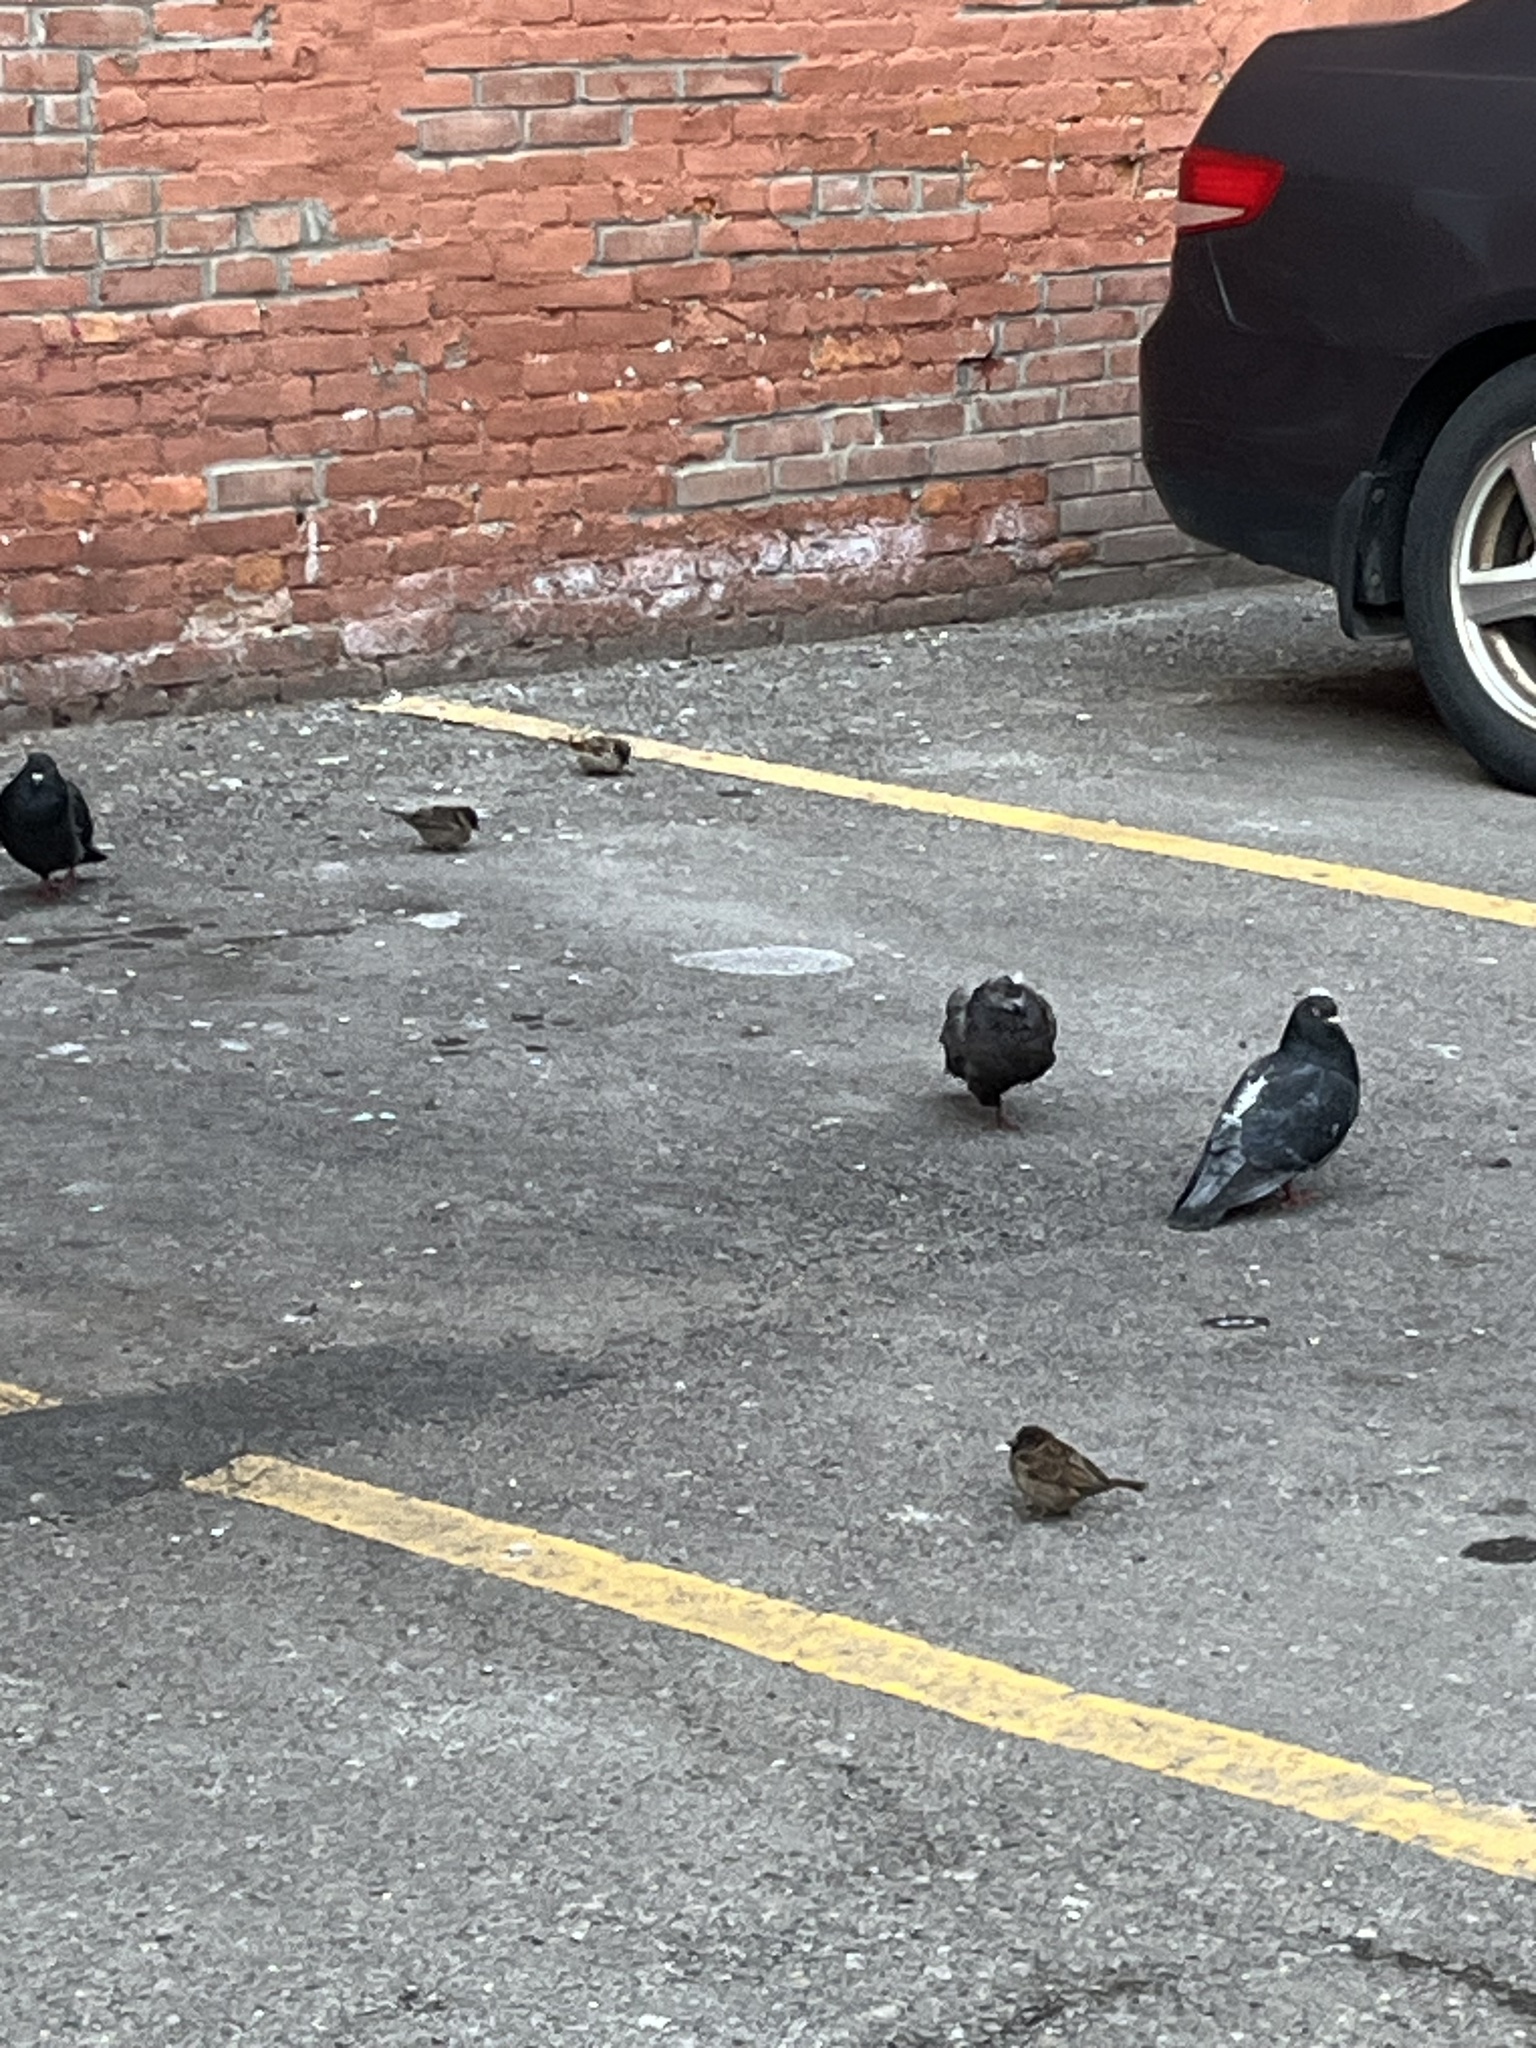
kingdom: Animalia
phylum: Chordata
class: Aves
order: Columbiformes
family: Columbidae
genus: Columba
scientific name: Columba livia
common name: Rock pigeon
